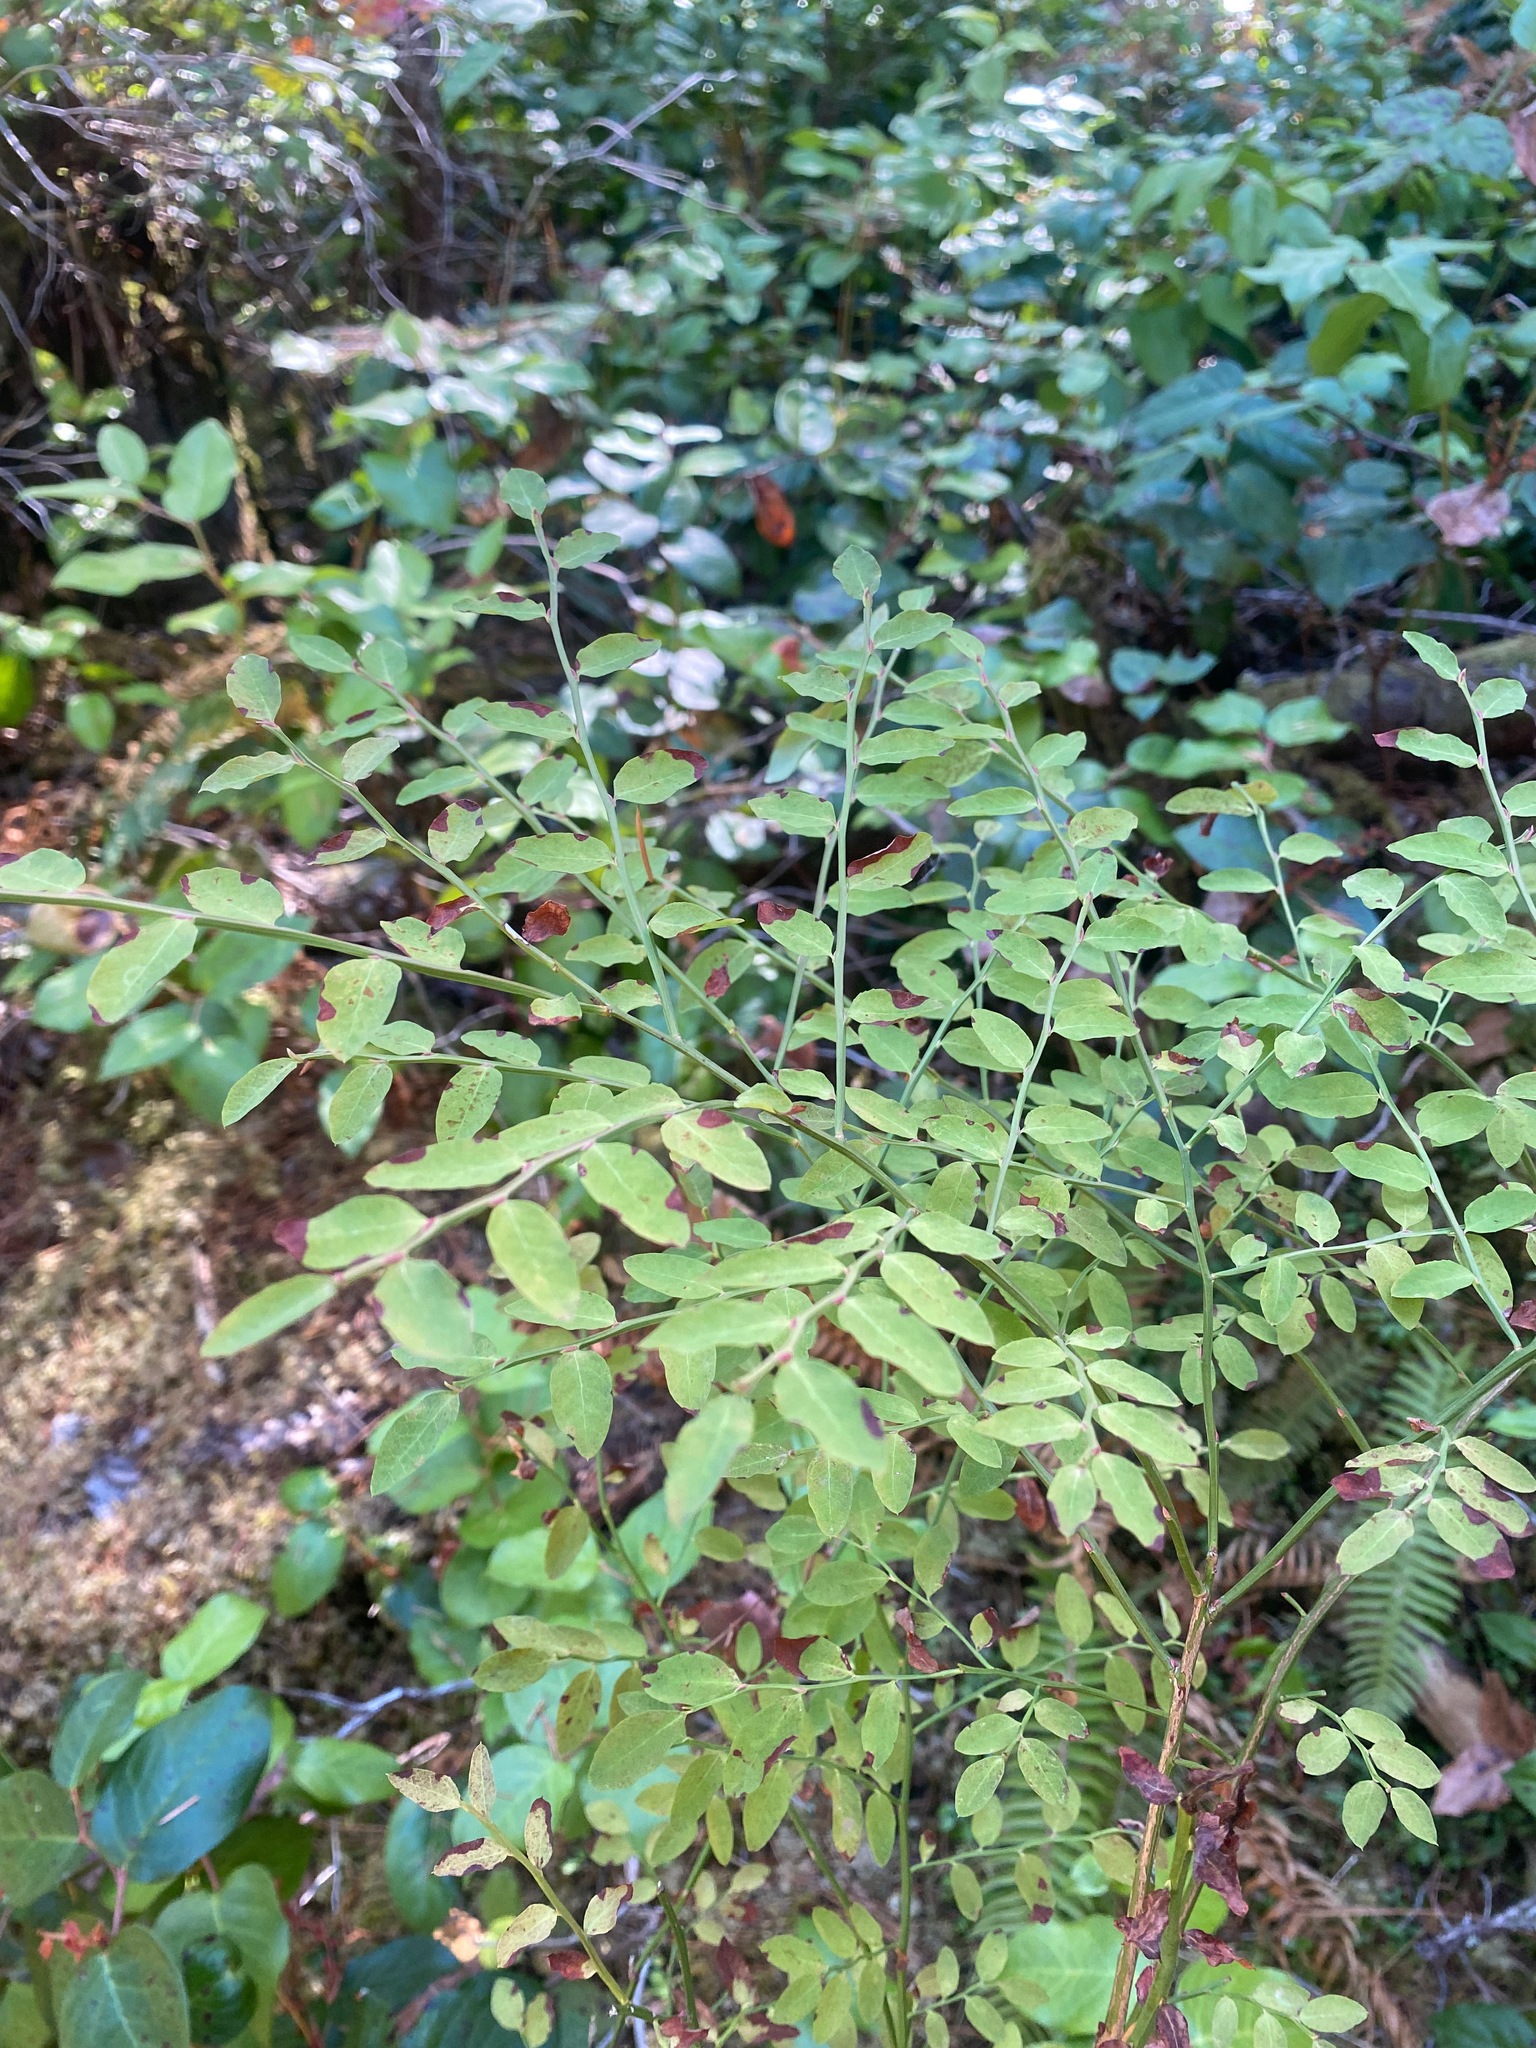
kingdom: Plantae
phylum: Tracheophyta
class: Magnoliopsida
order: Ericales
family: Ericaceae
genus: Vaccinium
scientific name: Vaccinium parvifolium
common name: Red-huckleberry
